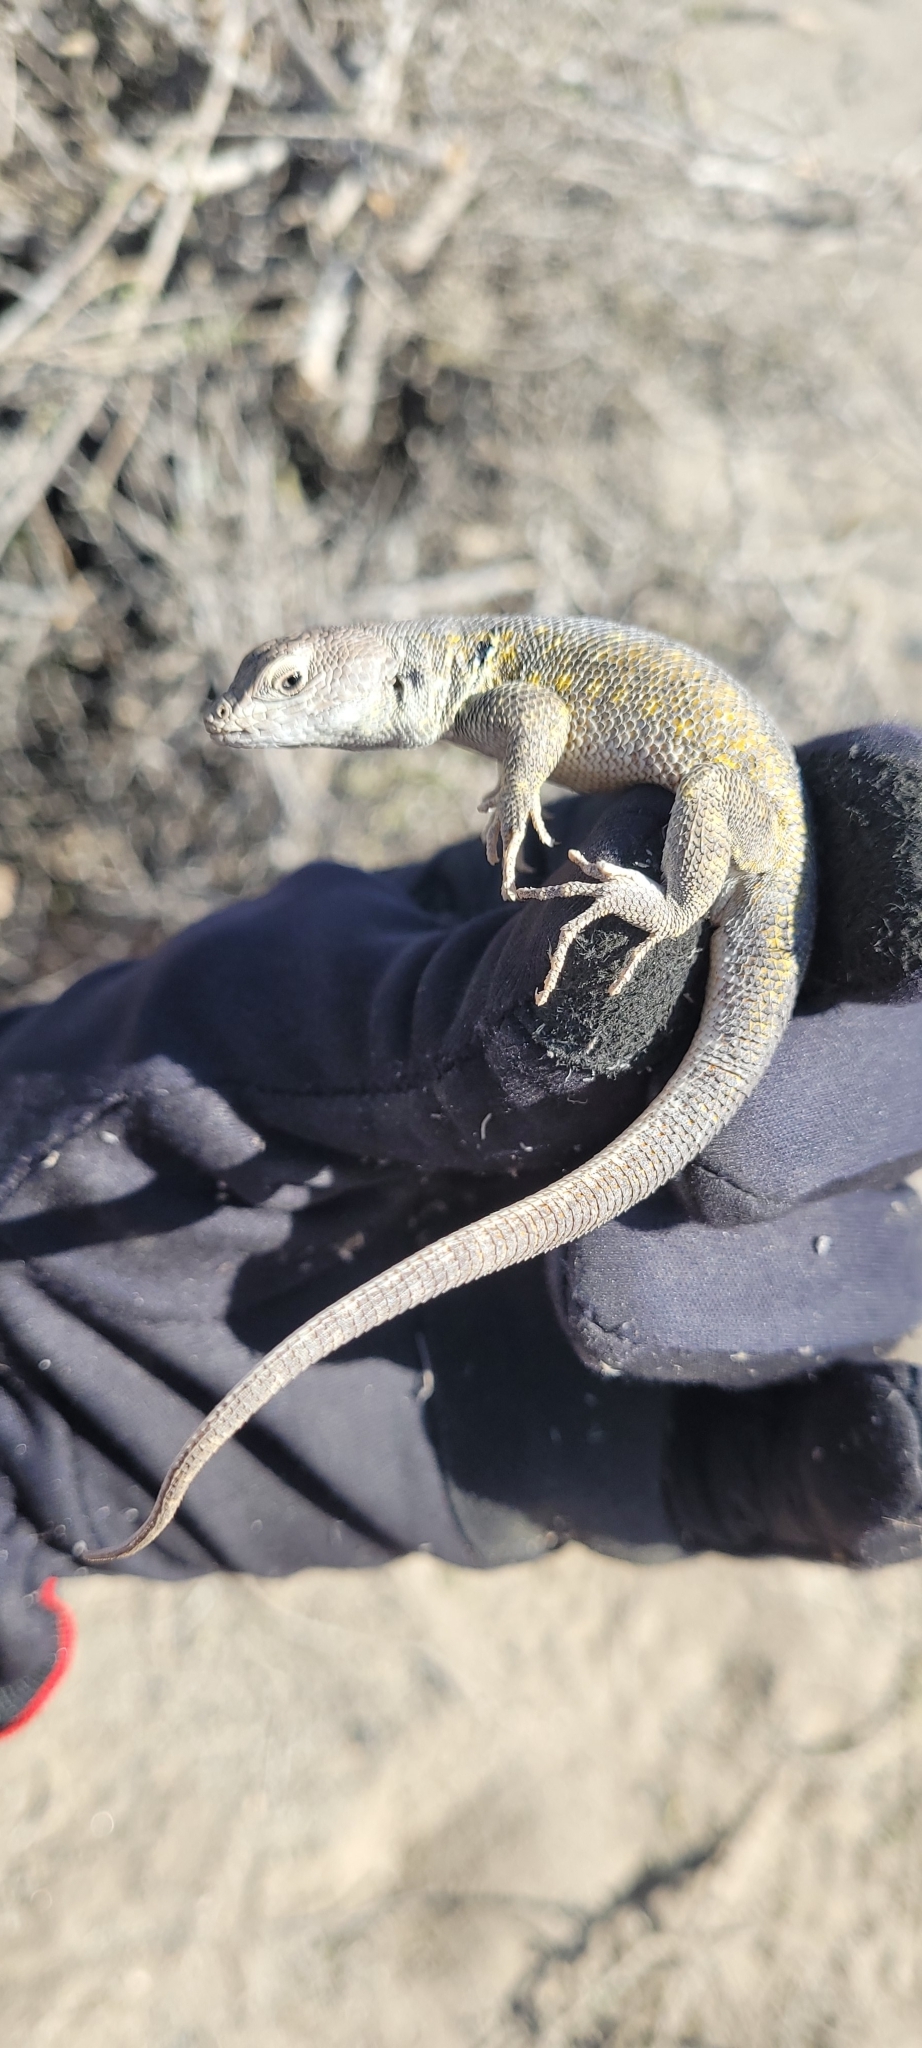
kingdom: Animalia
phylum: Chordata
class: Squamata
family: Liolaemidae
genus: Liolaemus
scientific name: Liolaemus atacamensis
